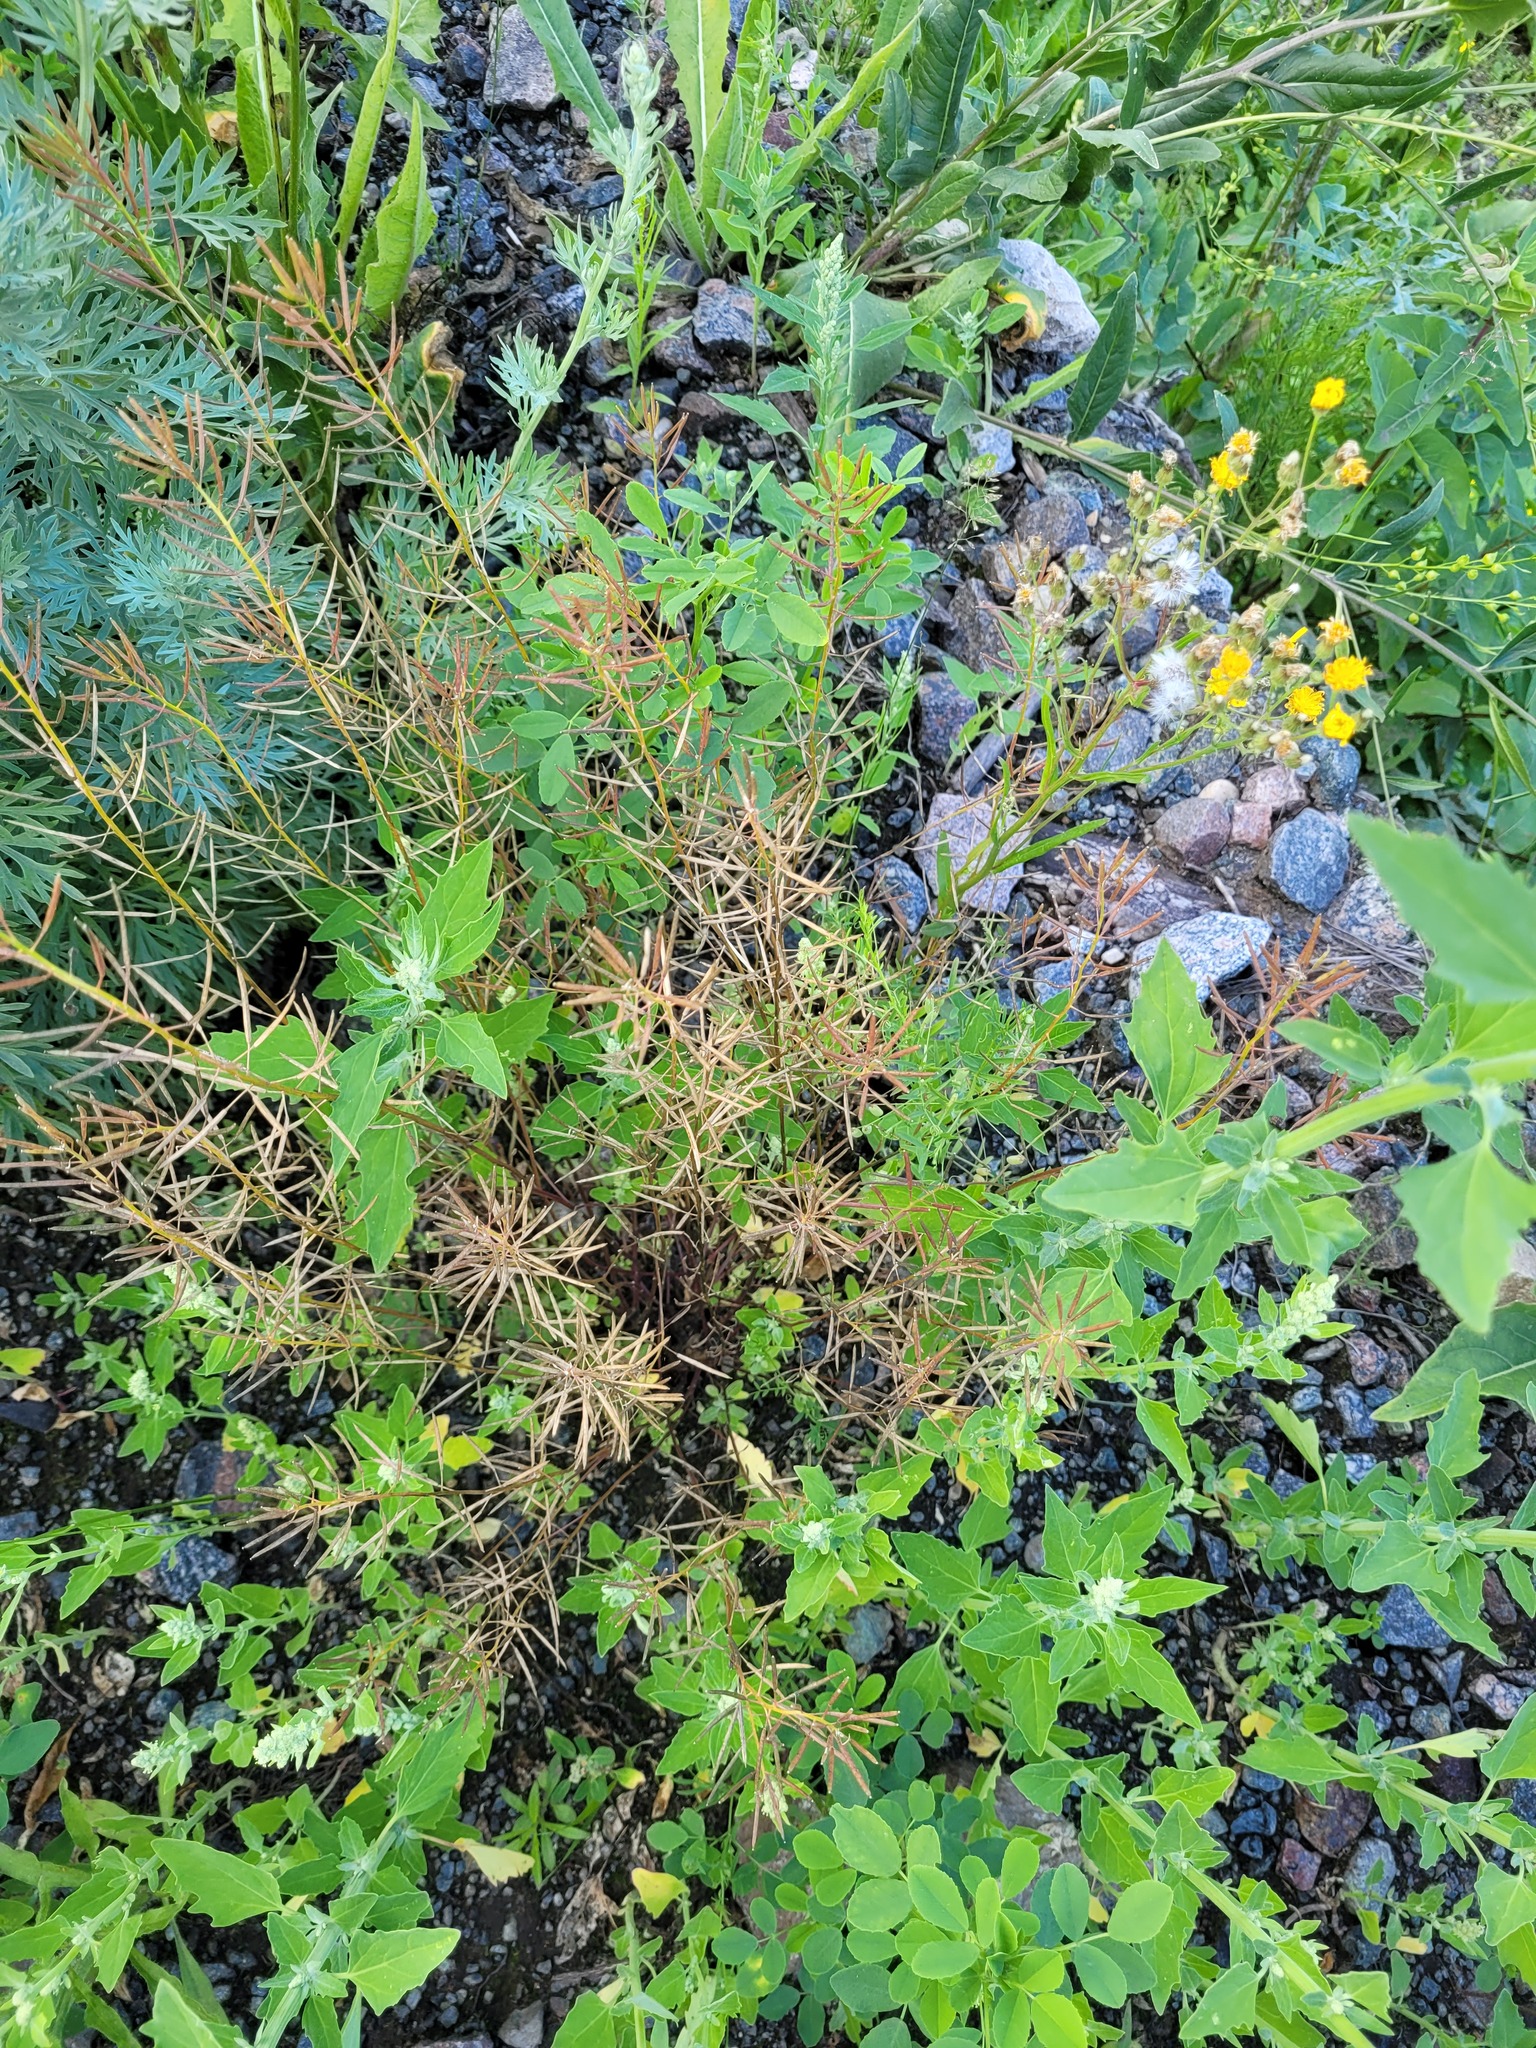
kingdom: Plantae
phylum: Tracheophyta
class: Magnoliopsida
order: Brassicales
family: Brassicaceae
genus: Erysimum
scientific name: Erysimum cheiranthoides
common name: Treacle mustard
